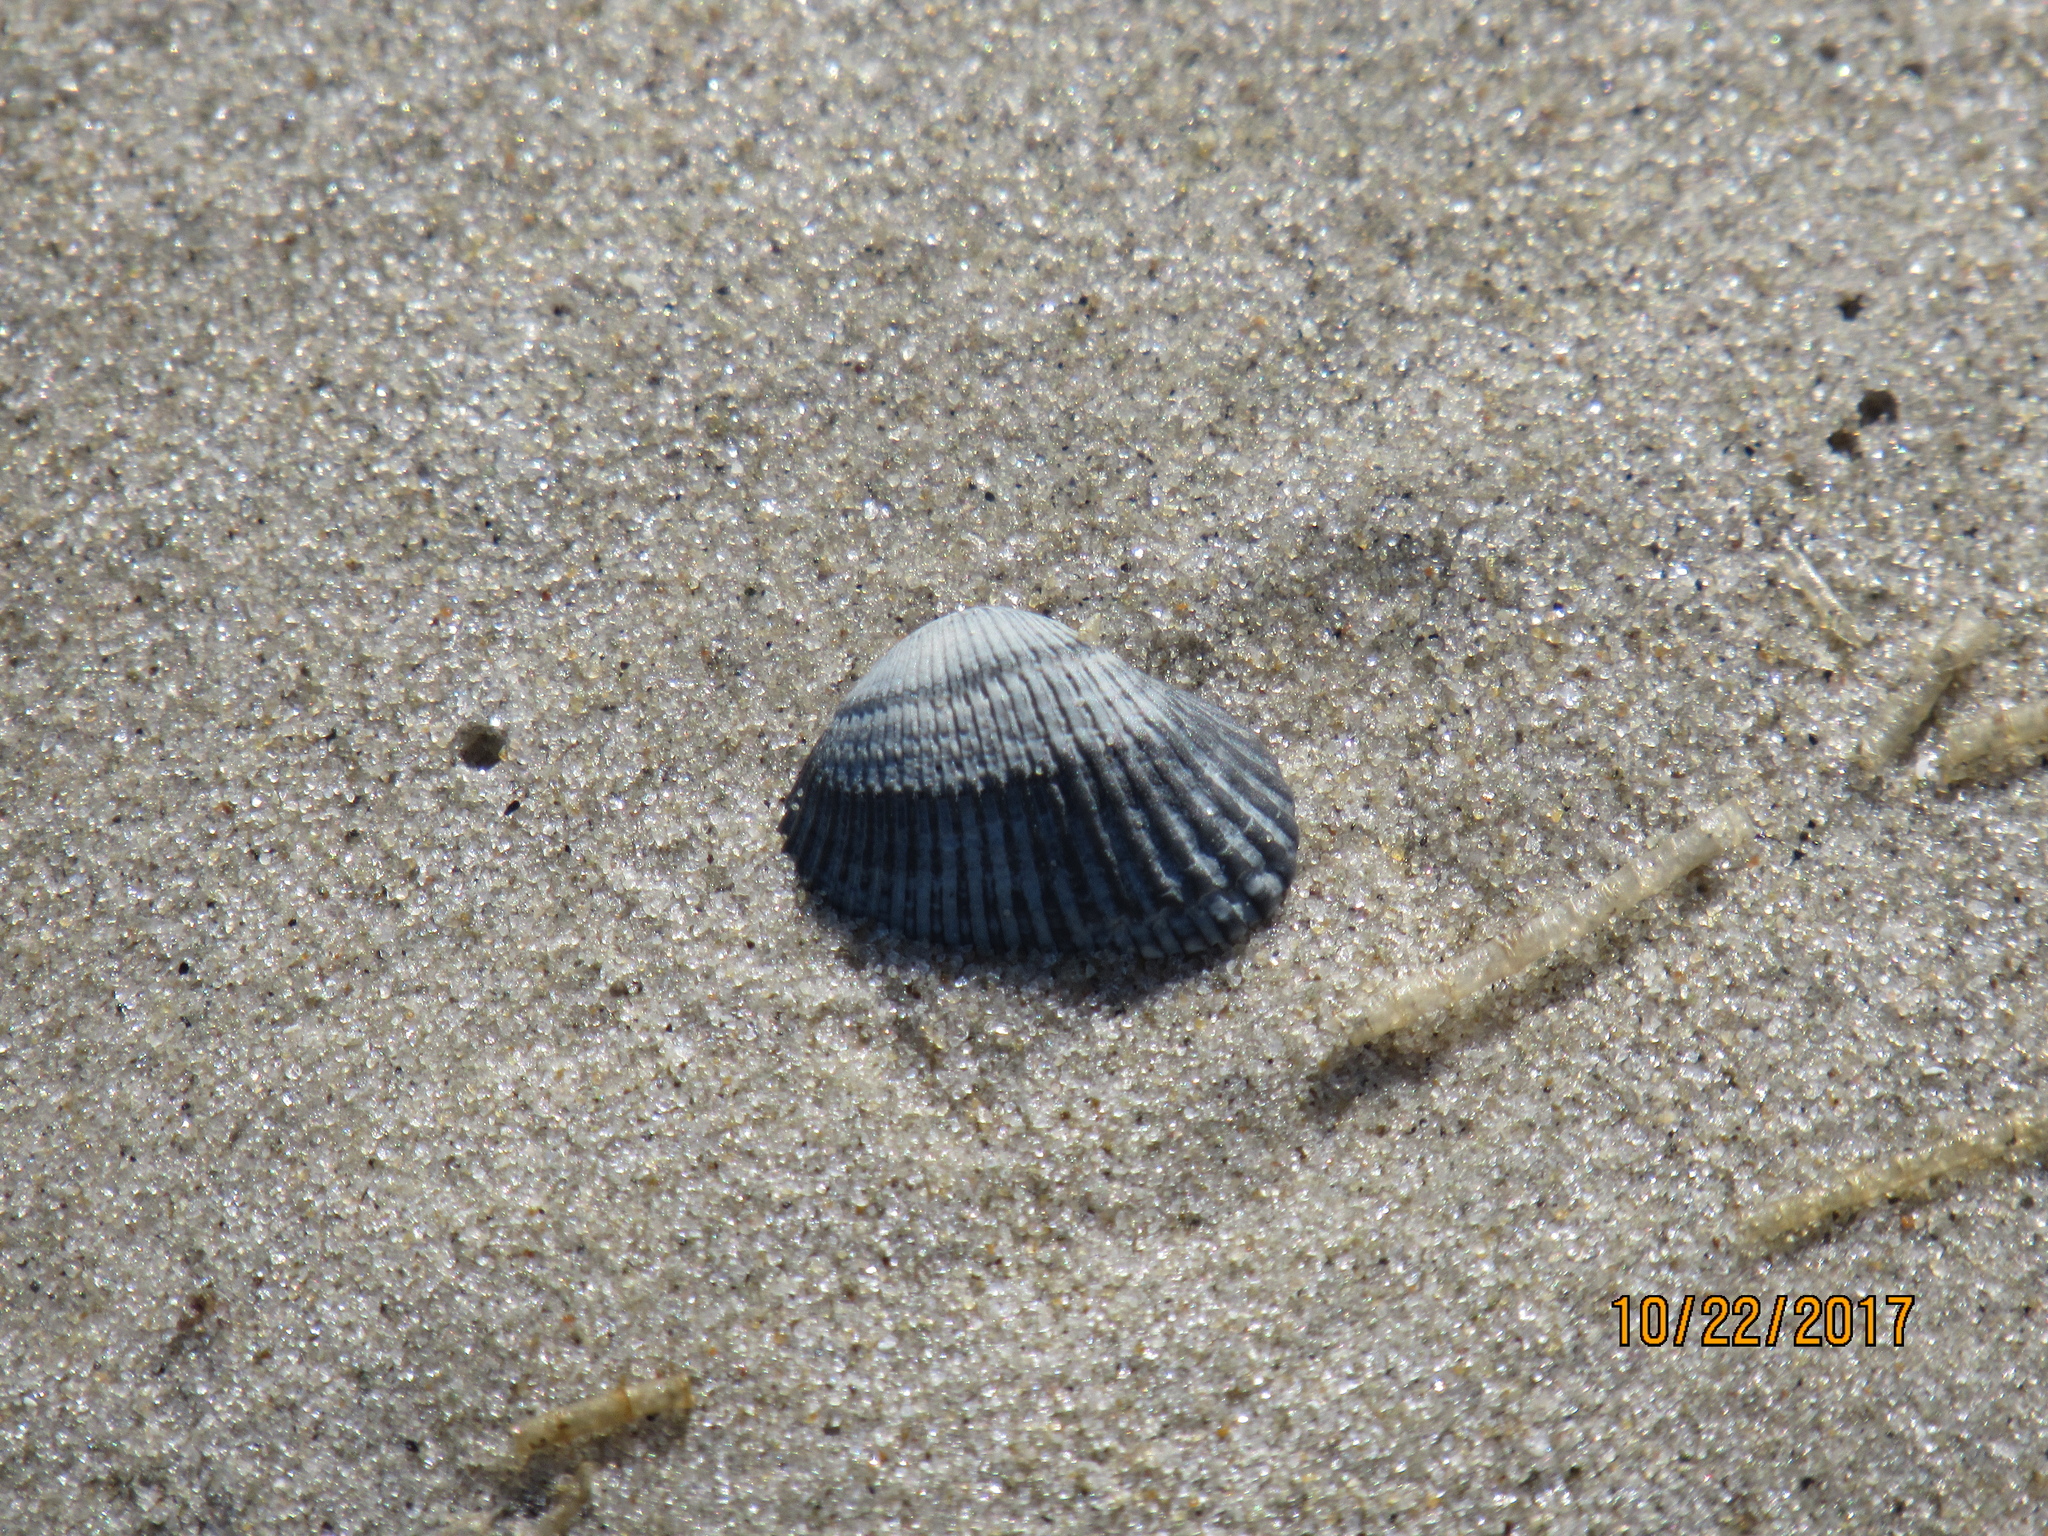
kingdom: Animalia
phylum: Mollusca
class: Bivalvia
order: Arcida
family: Arcidae
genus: Anadara
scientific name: Anadara transversa
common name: Transverse ark
